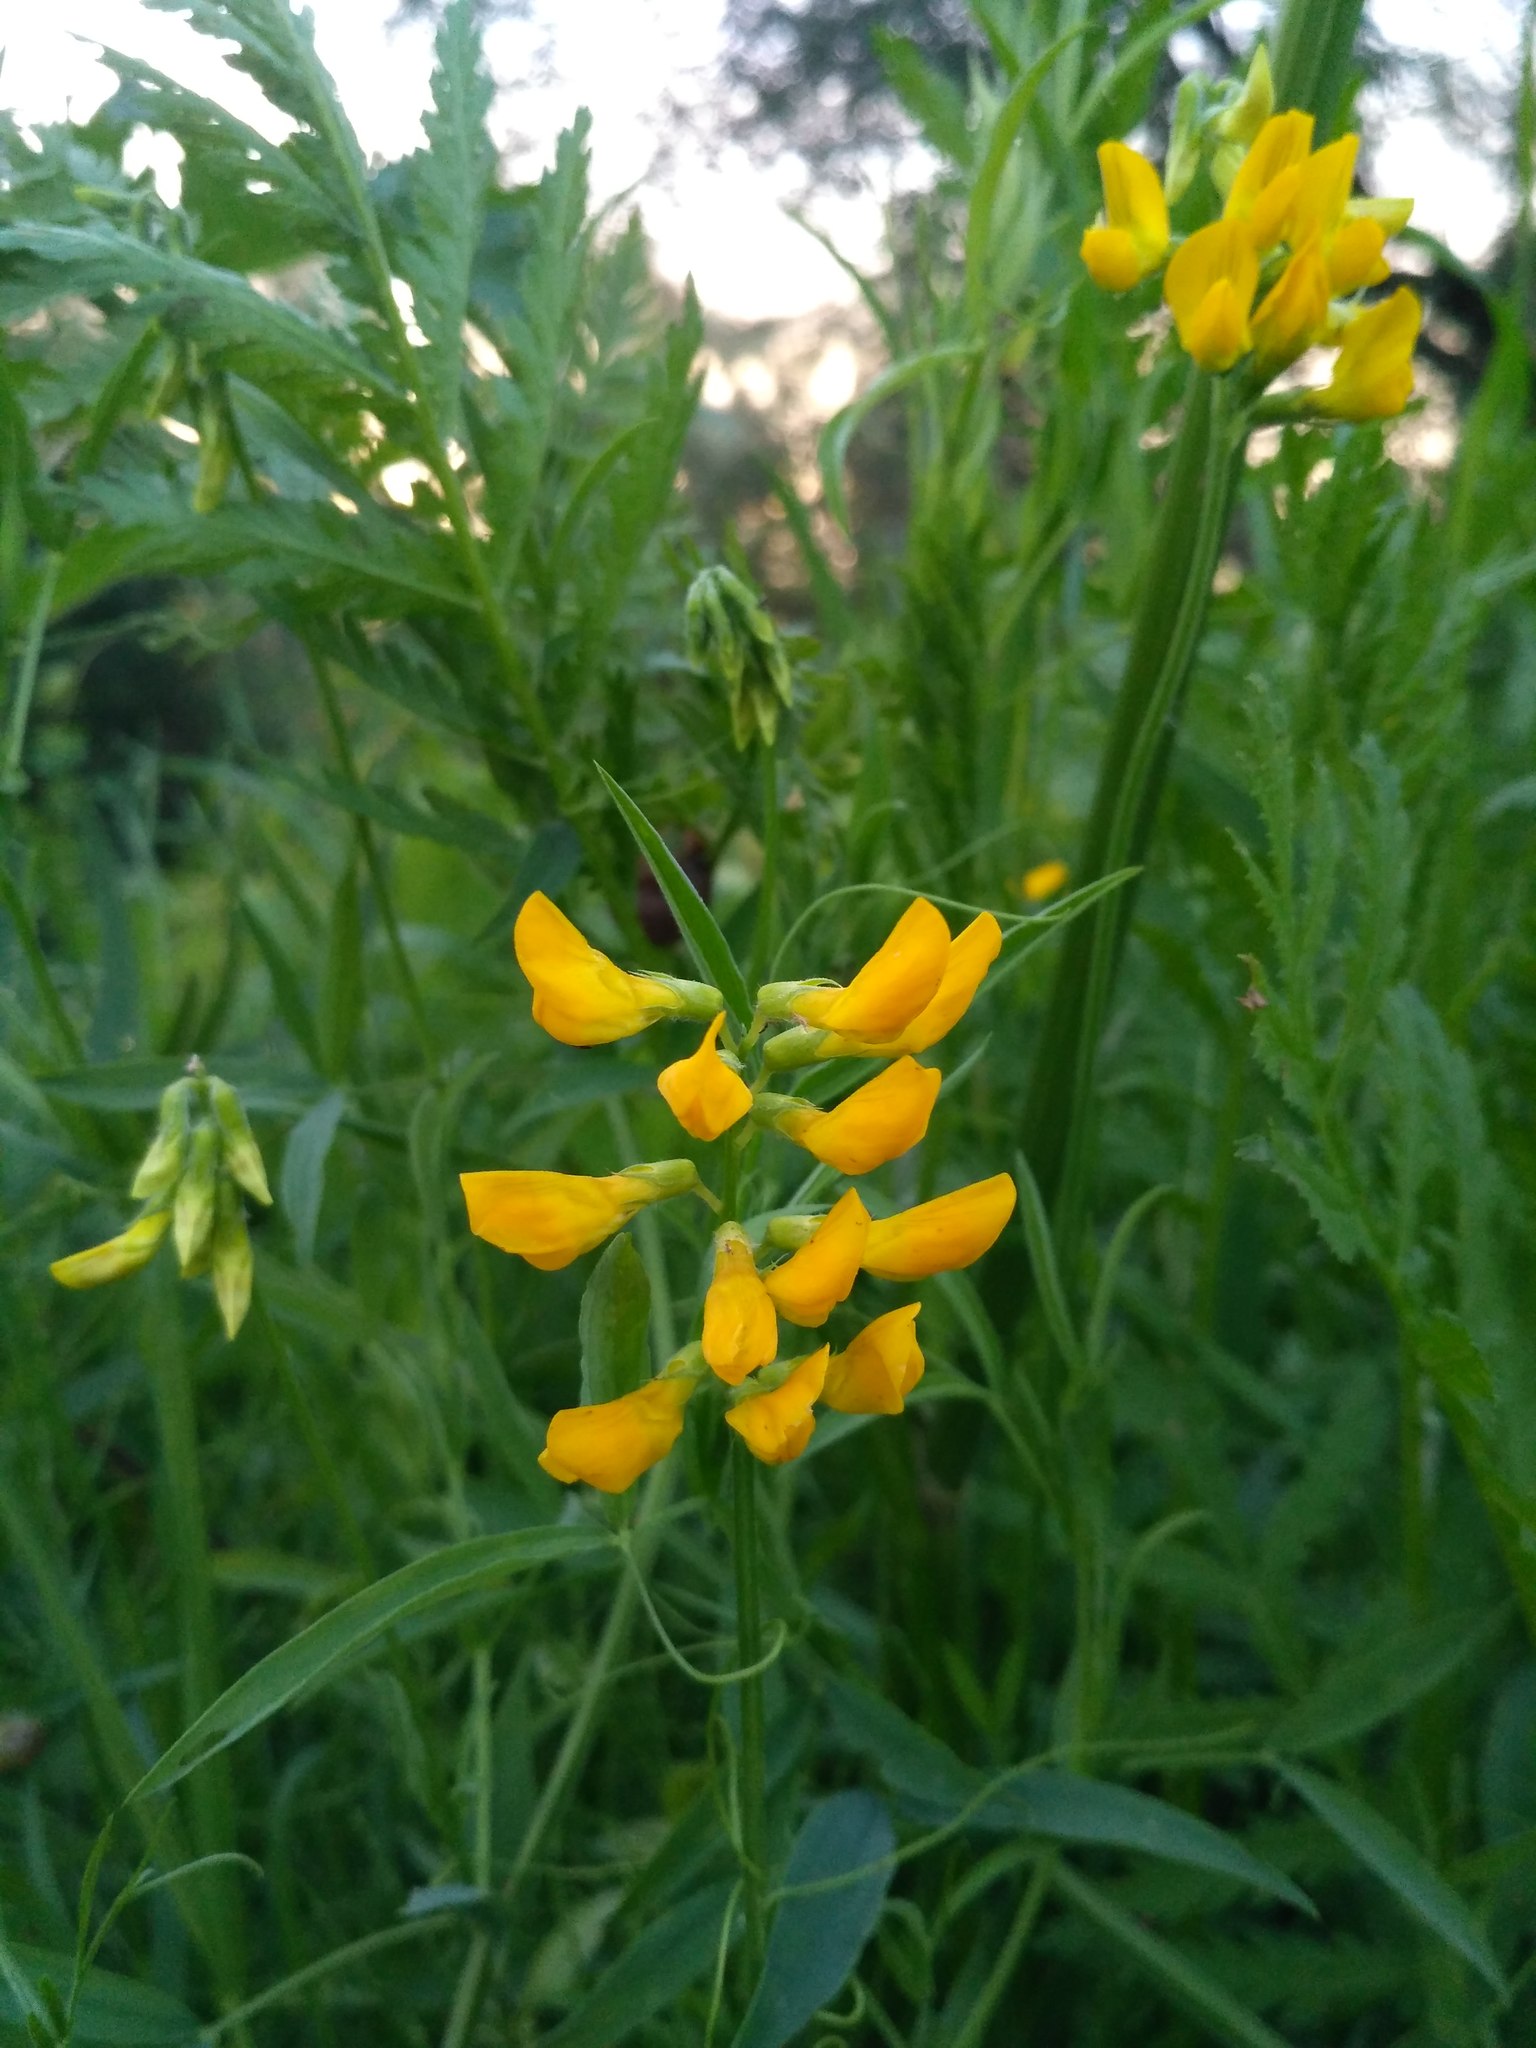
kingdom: Plantae
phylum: Tracheophyta
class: Magnoliopsida
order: Fabales
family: Fabaceae
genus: Lathyrus
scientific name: Lathyrus pratensis
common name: Meadow vetchling
